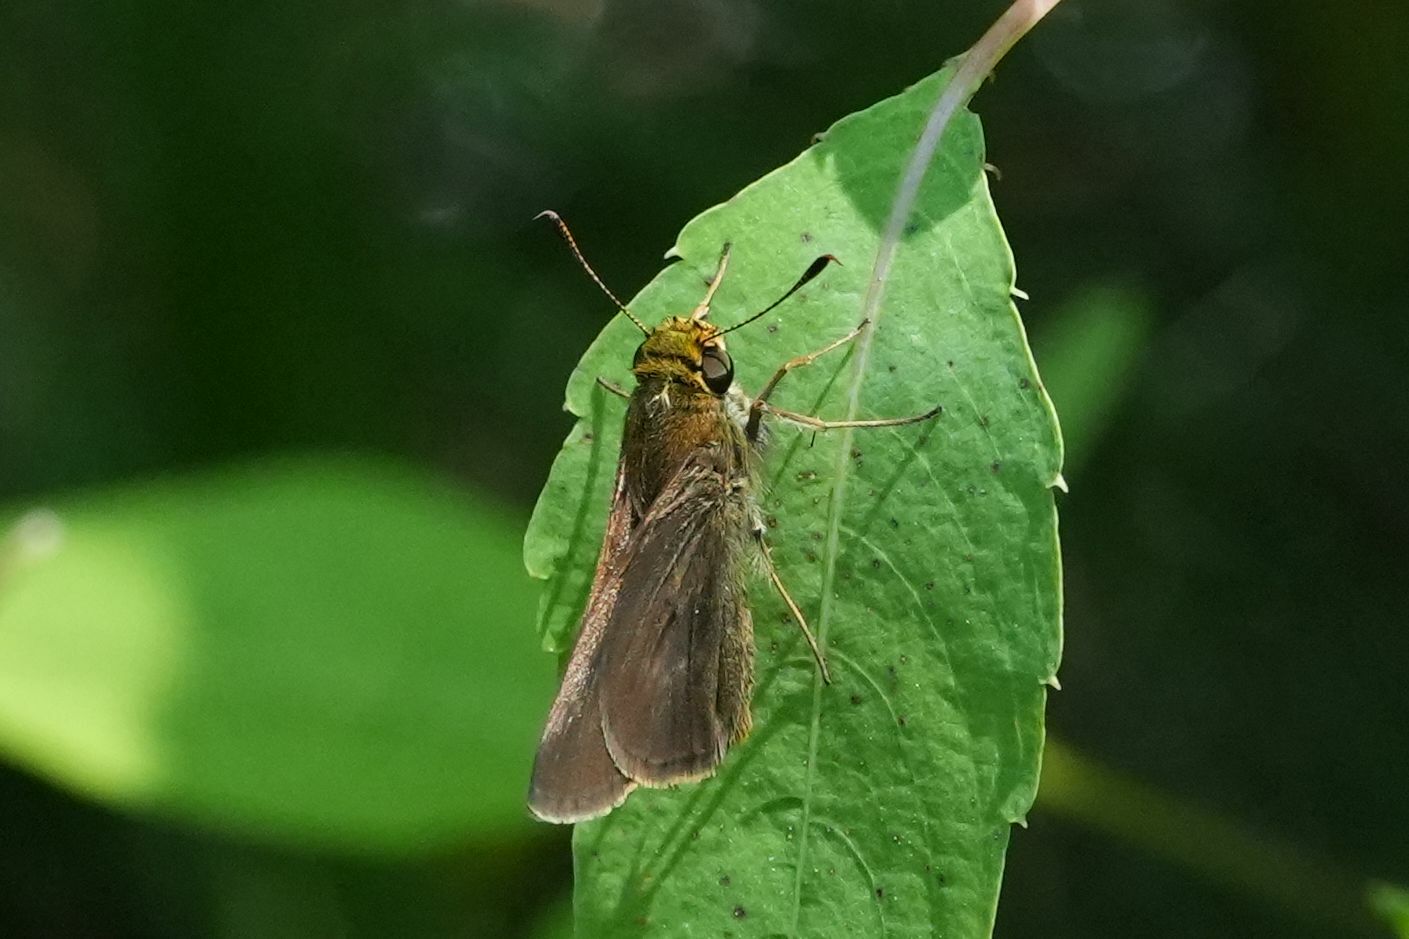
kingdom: Animalia
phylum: Arthropoda
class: Insecta
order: Lepidoptera
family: Hesperiidae
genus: Euphyes
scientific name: Euphyes vestris
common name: Dun skipper
